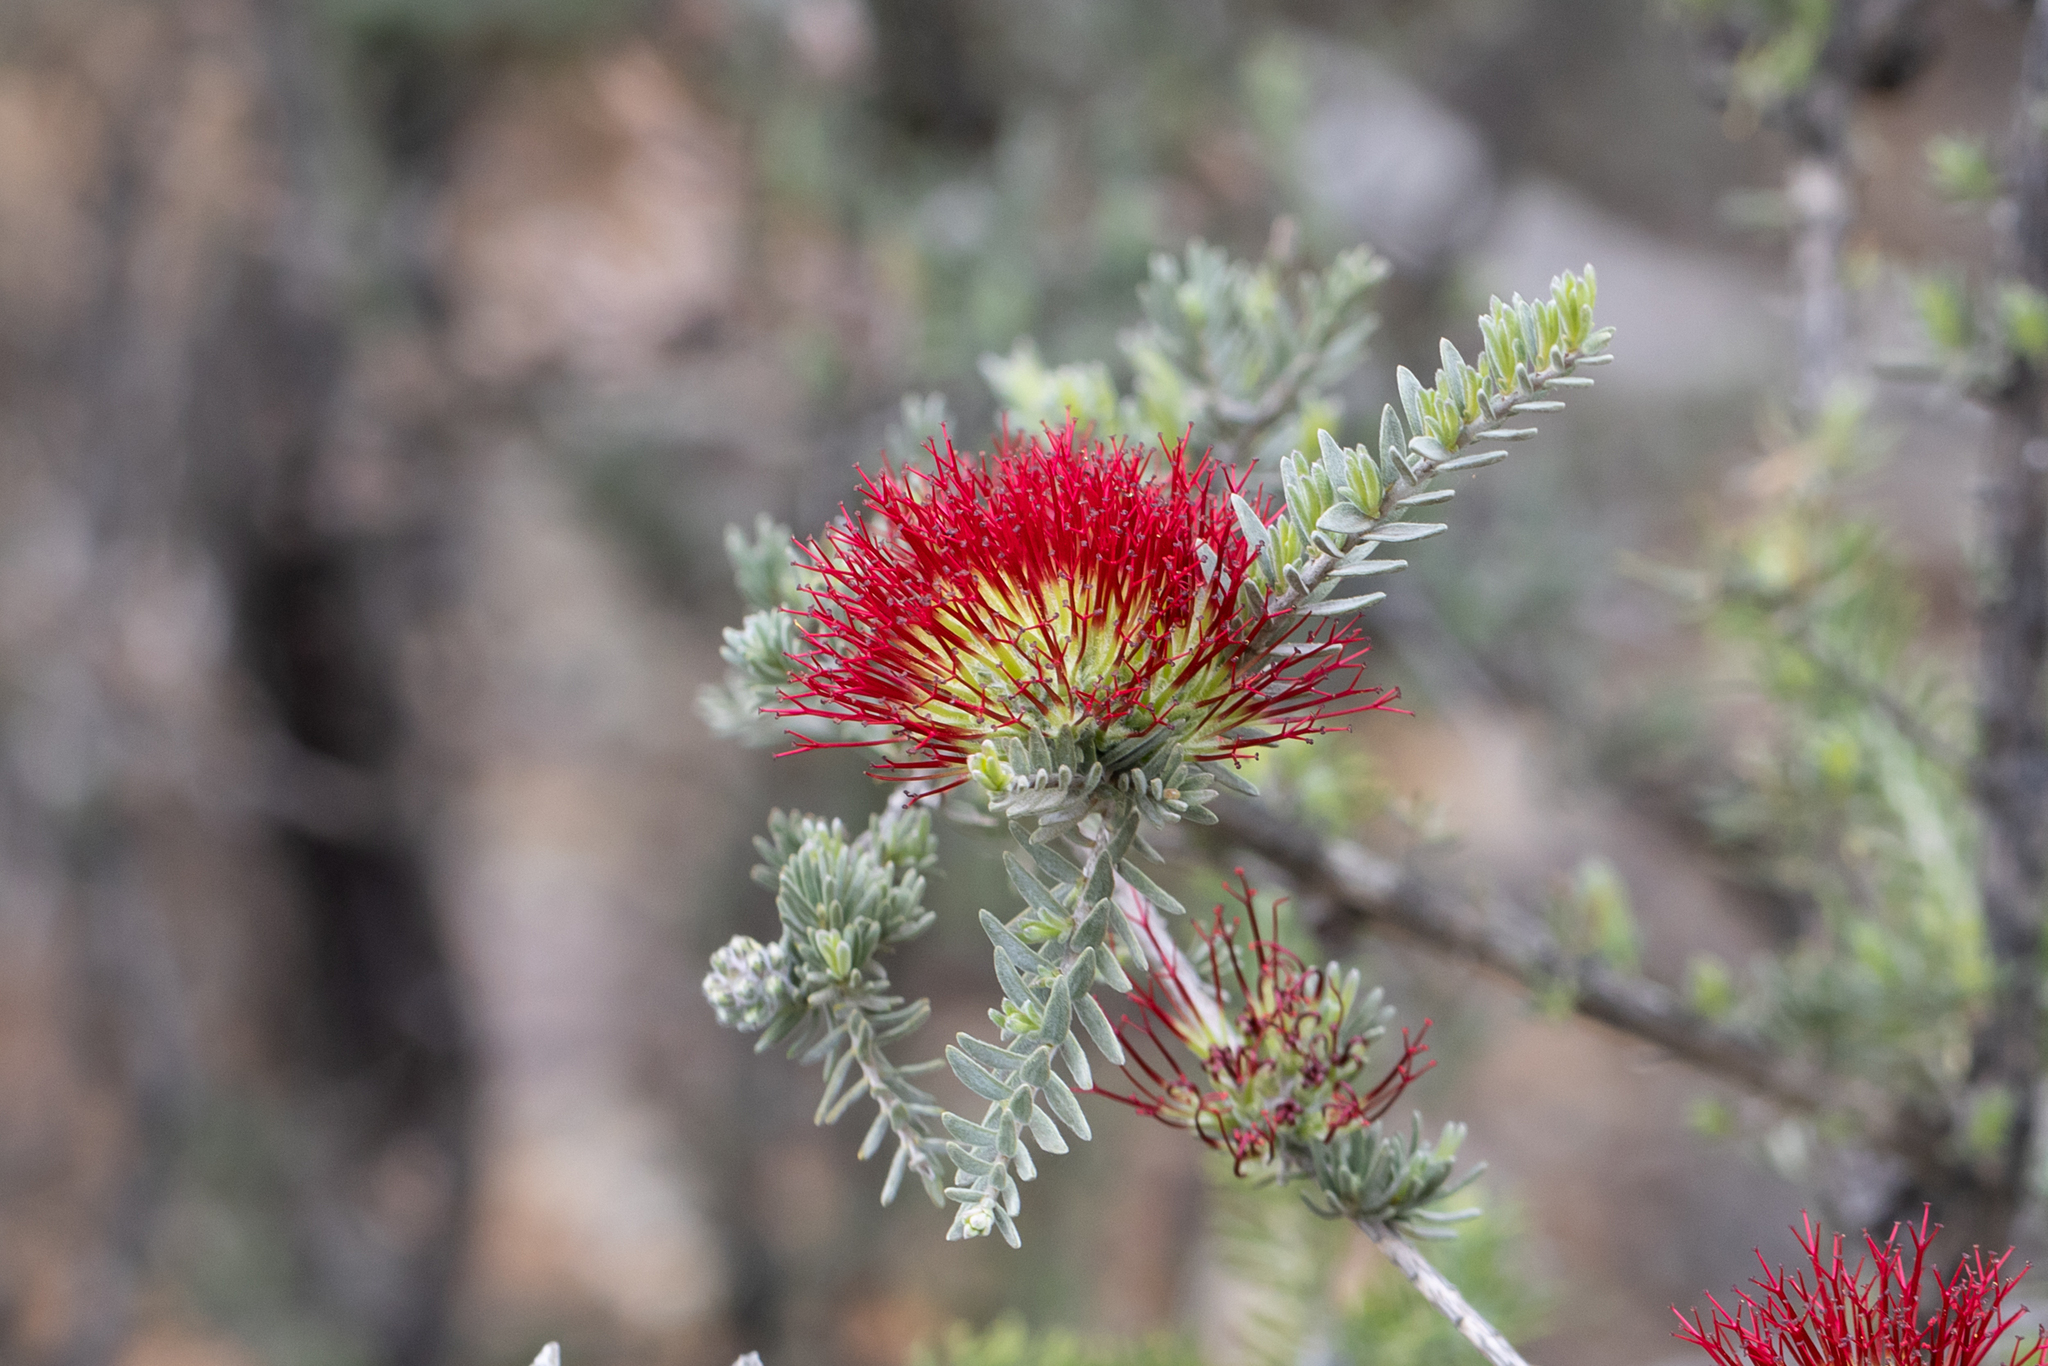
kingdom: Plantae
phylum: Tracheophyta
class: Magnoliopsida
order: Myrtales
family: Myrtaceae
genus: Melaleuca
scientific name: Melaleuca cinerea
